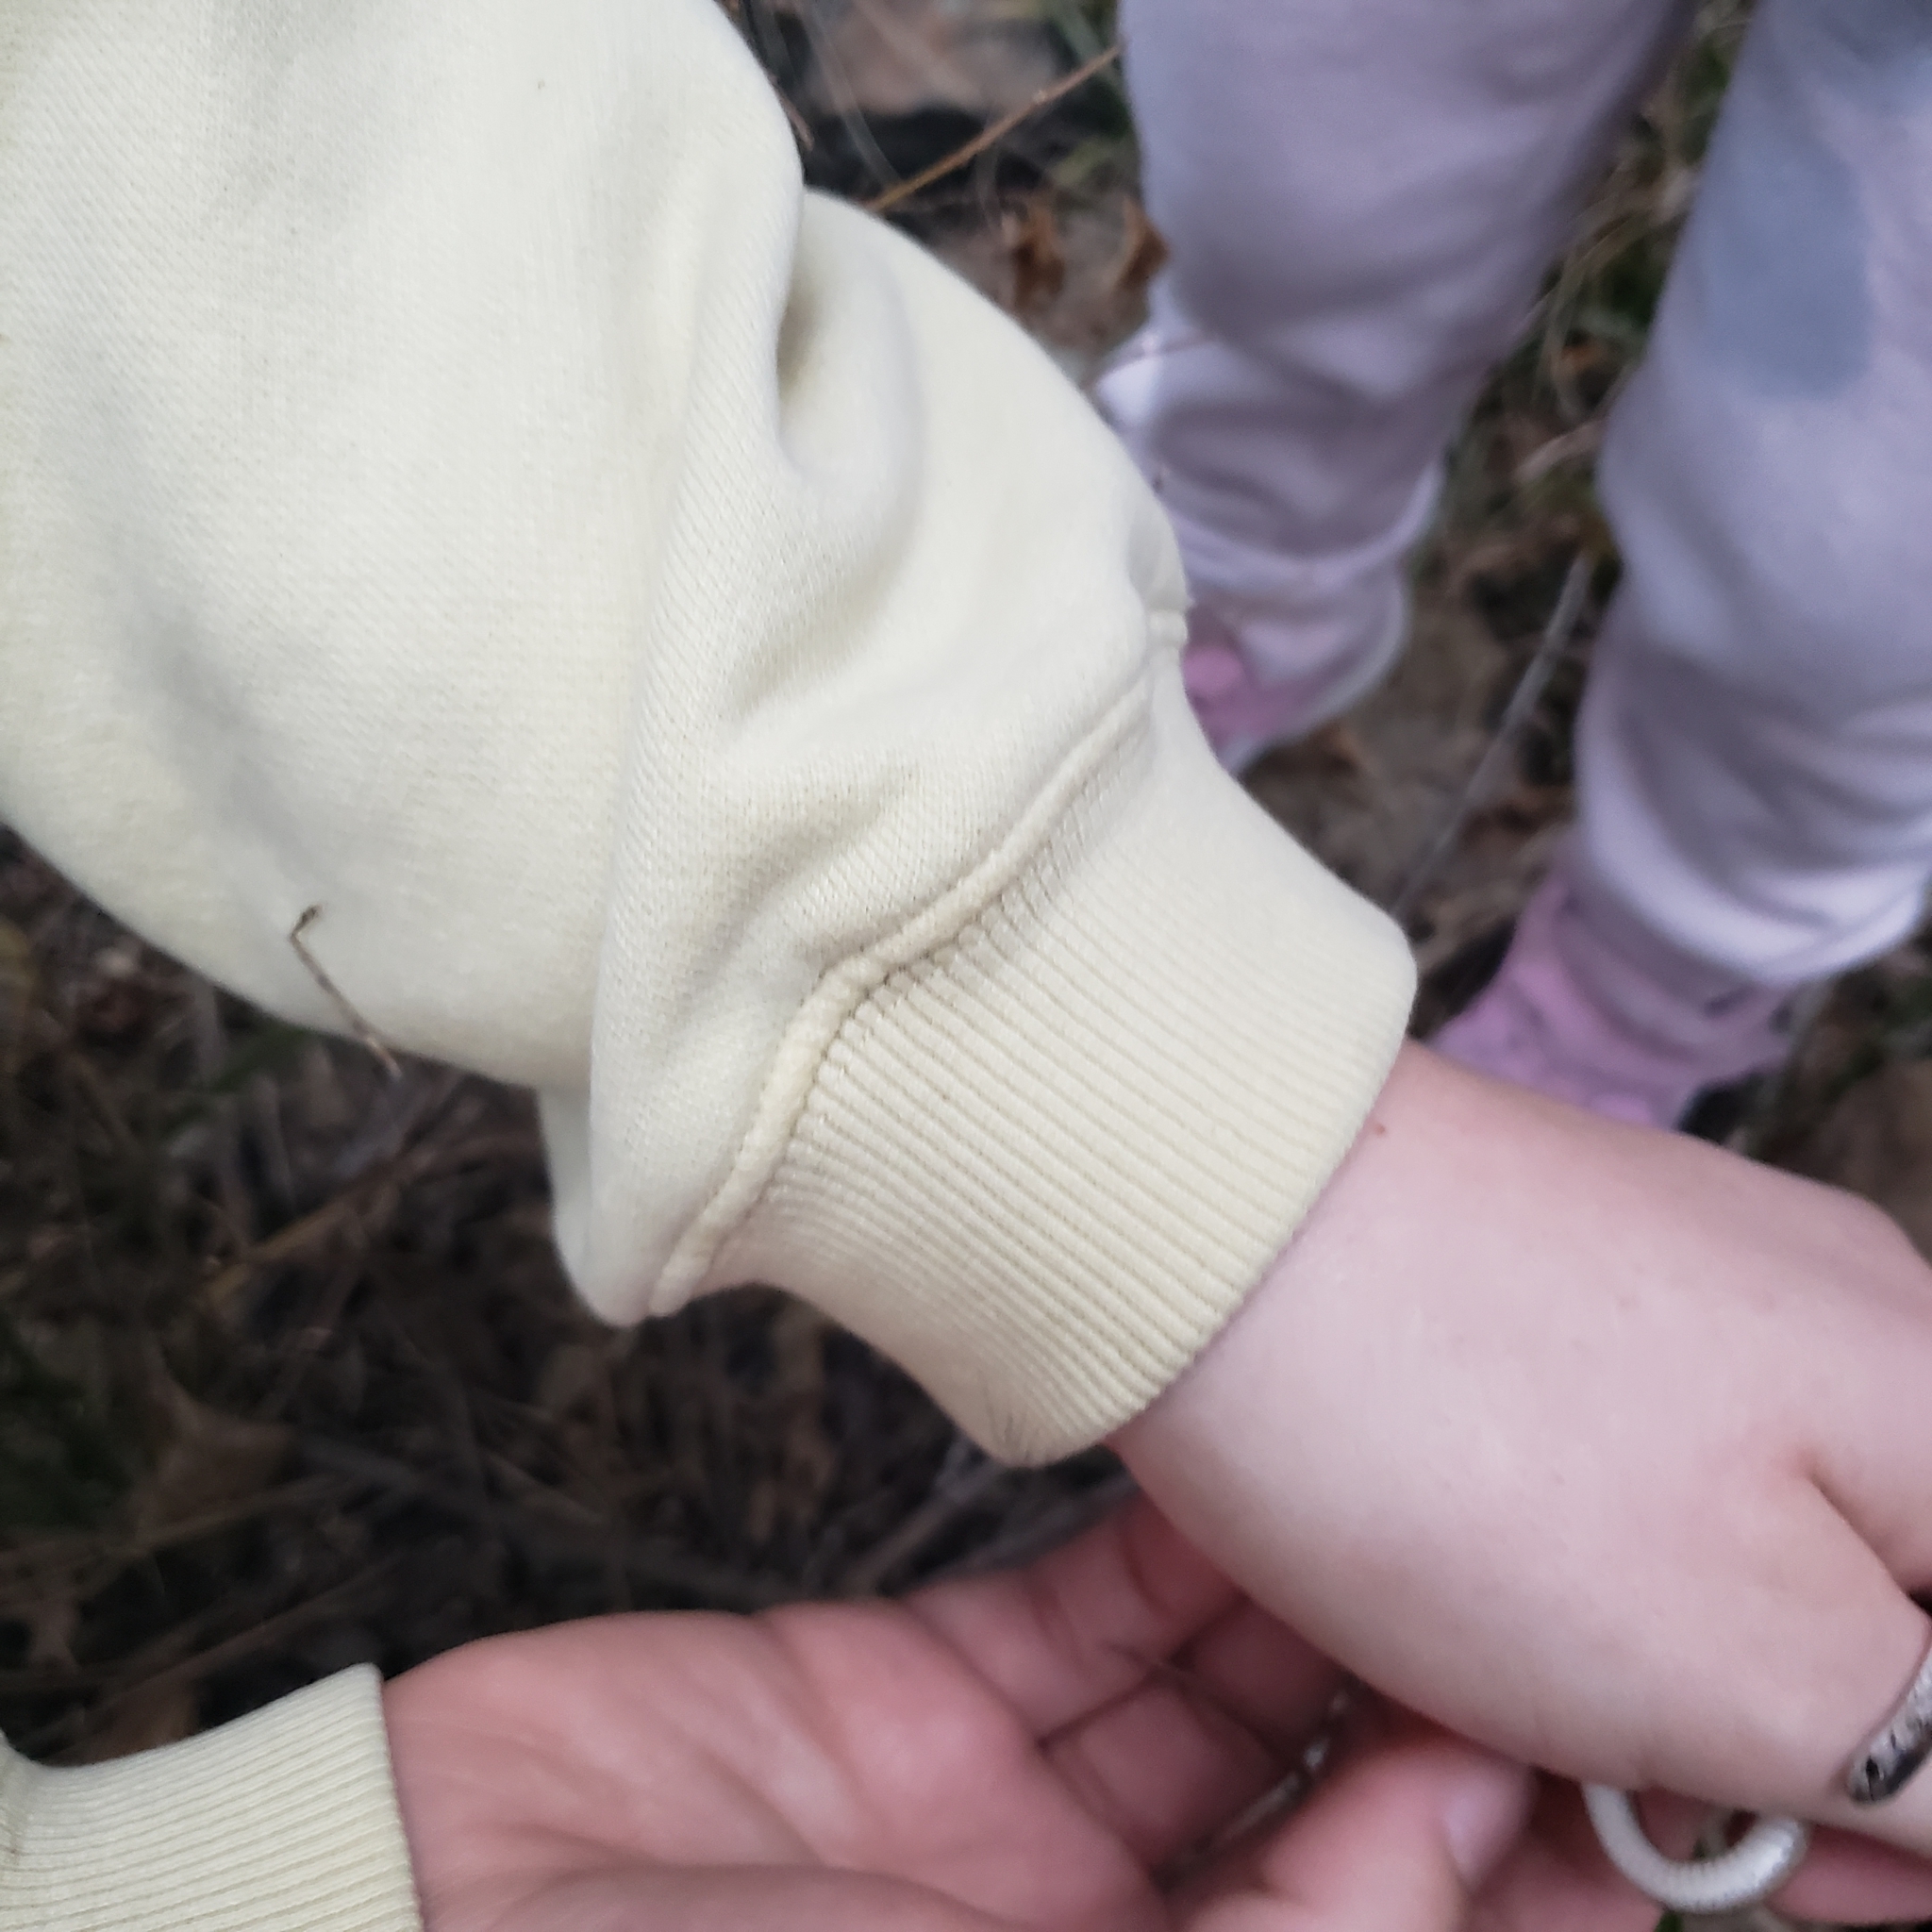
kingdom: Animalia
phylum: Chordata
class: Squamata
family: Colubridae
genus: Storeria
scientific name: Storeria dekayi
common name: (dekay’s) brown snake
